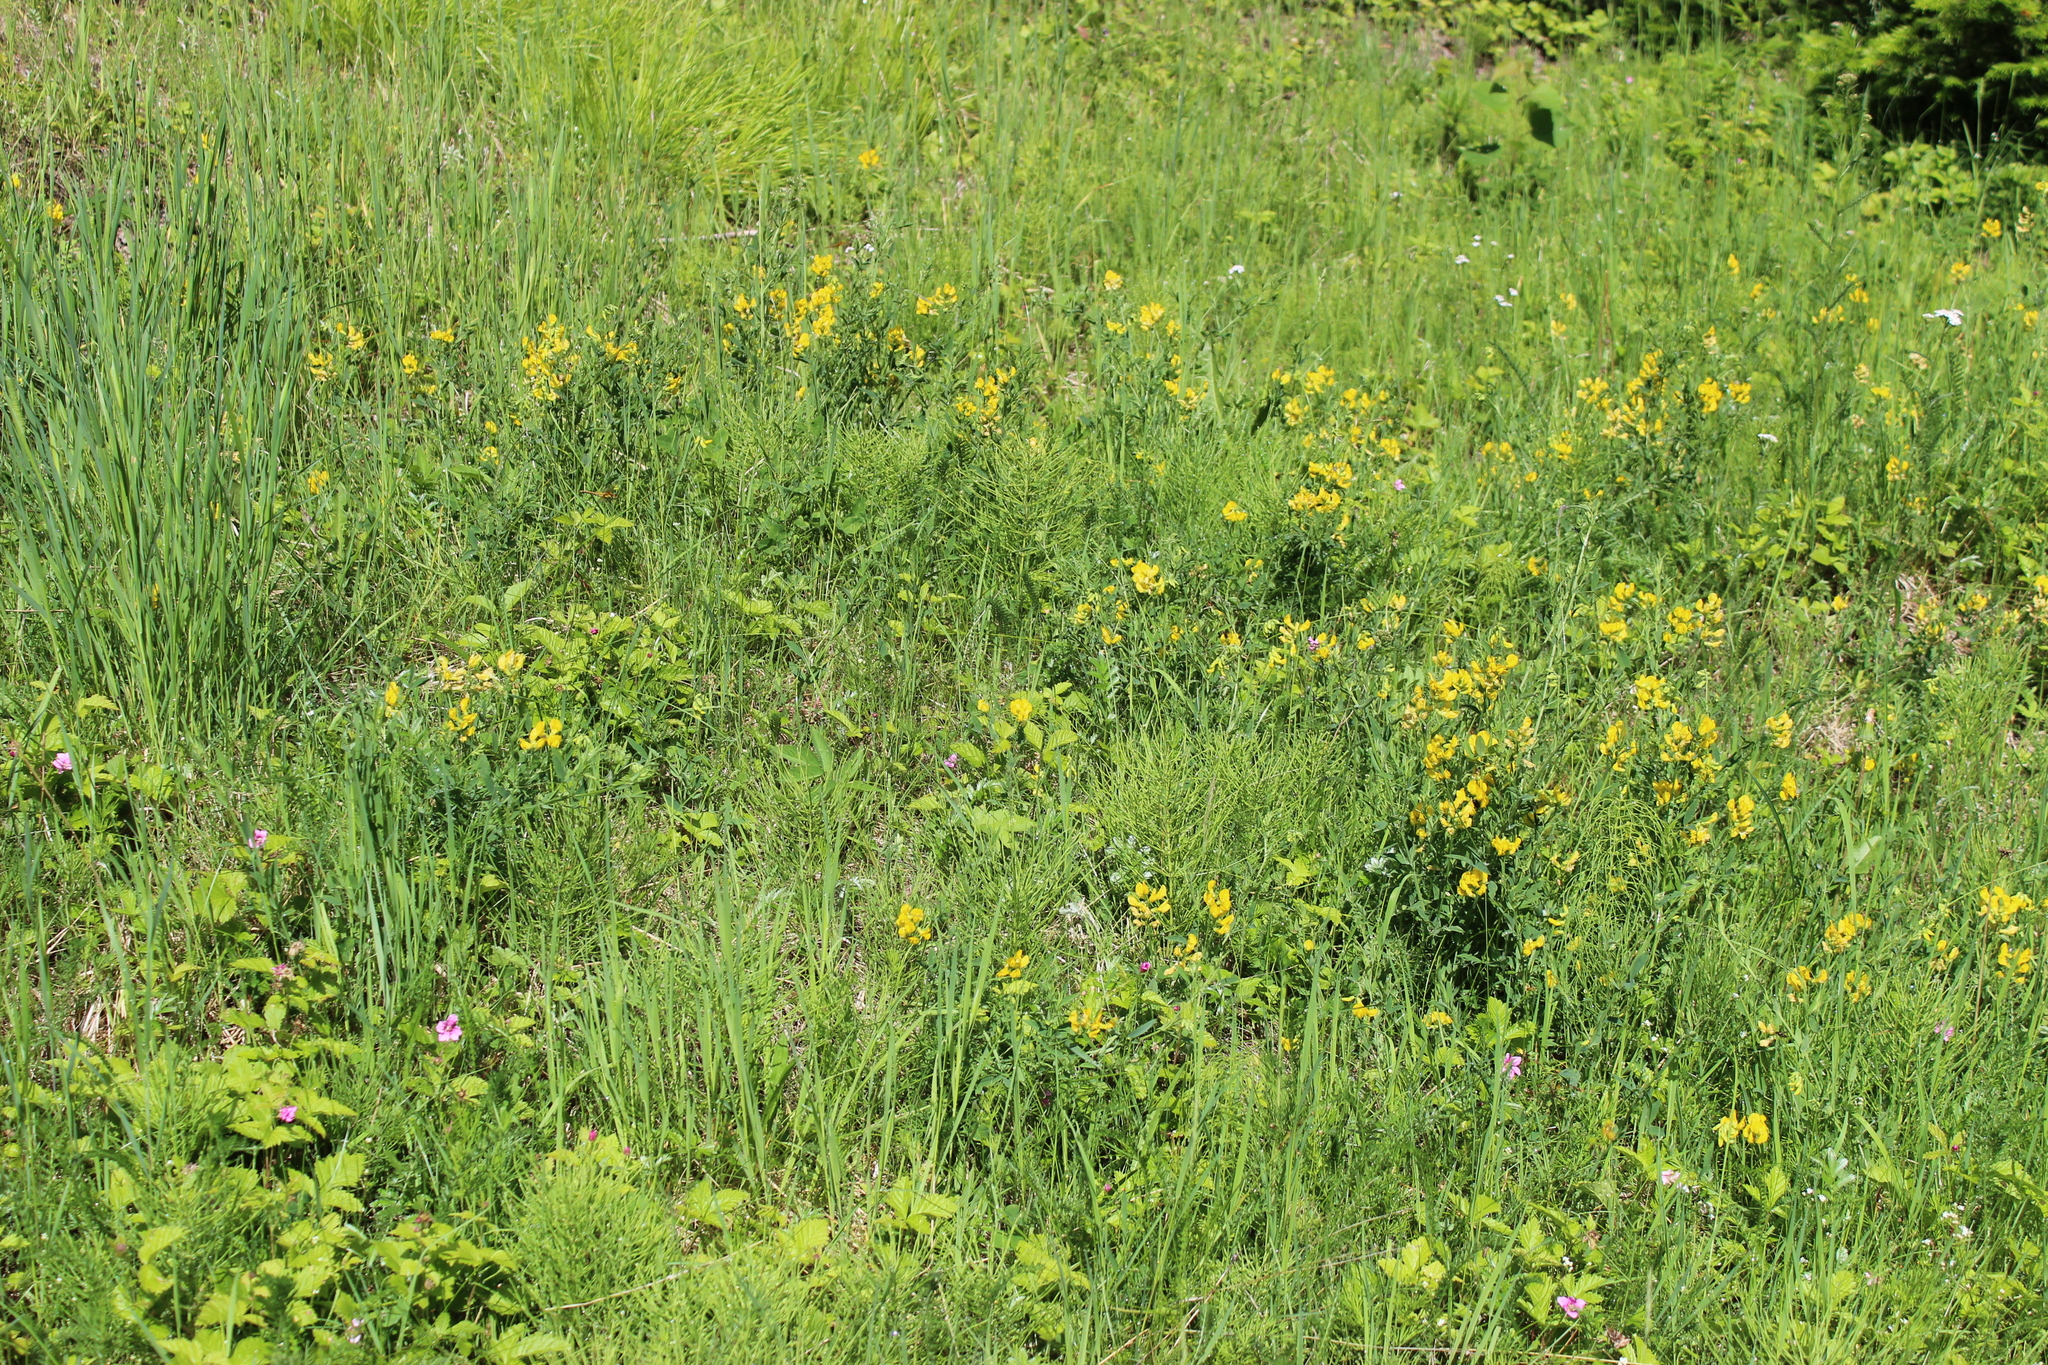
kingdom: Plantae
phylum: Tracheophyta
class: Magnoliopsida
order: Fabales
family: Fabaceae
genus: Lathyrus
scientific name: Lathyrus pratensis
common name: Meadow vetchling
